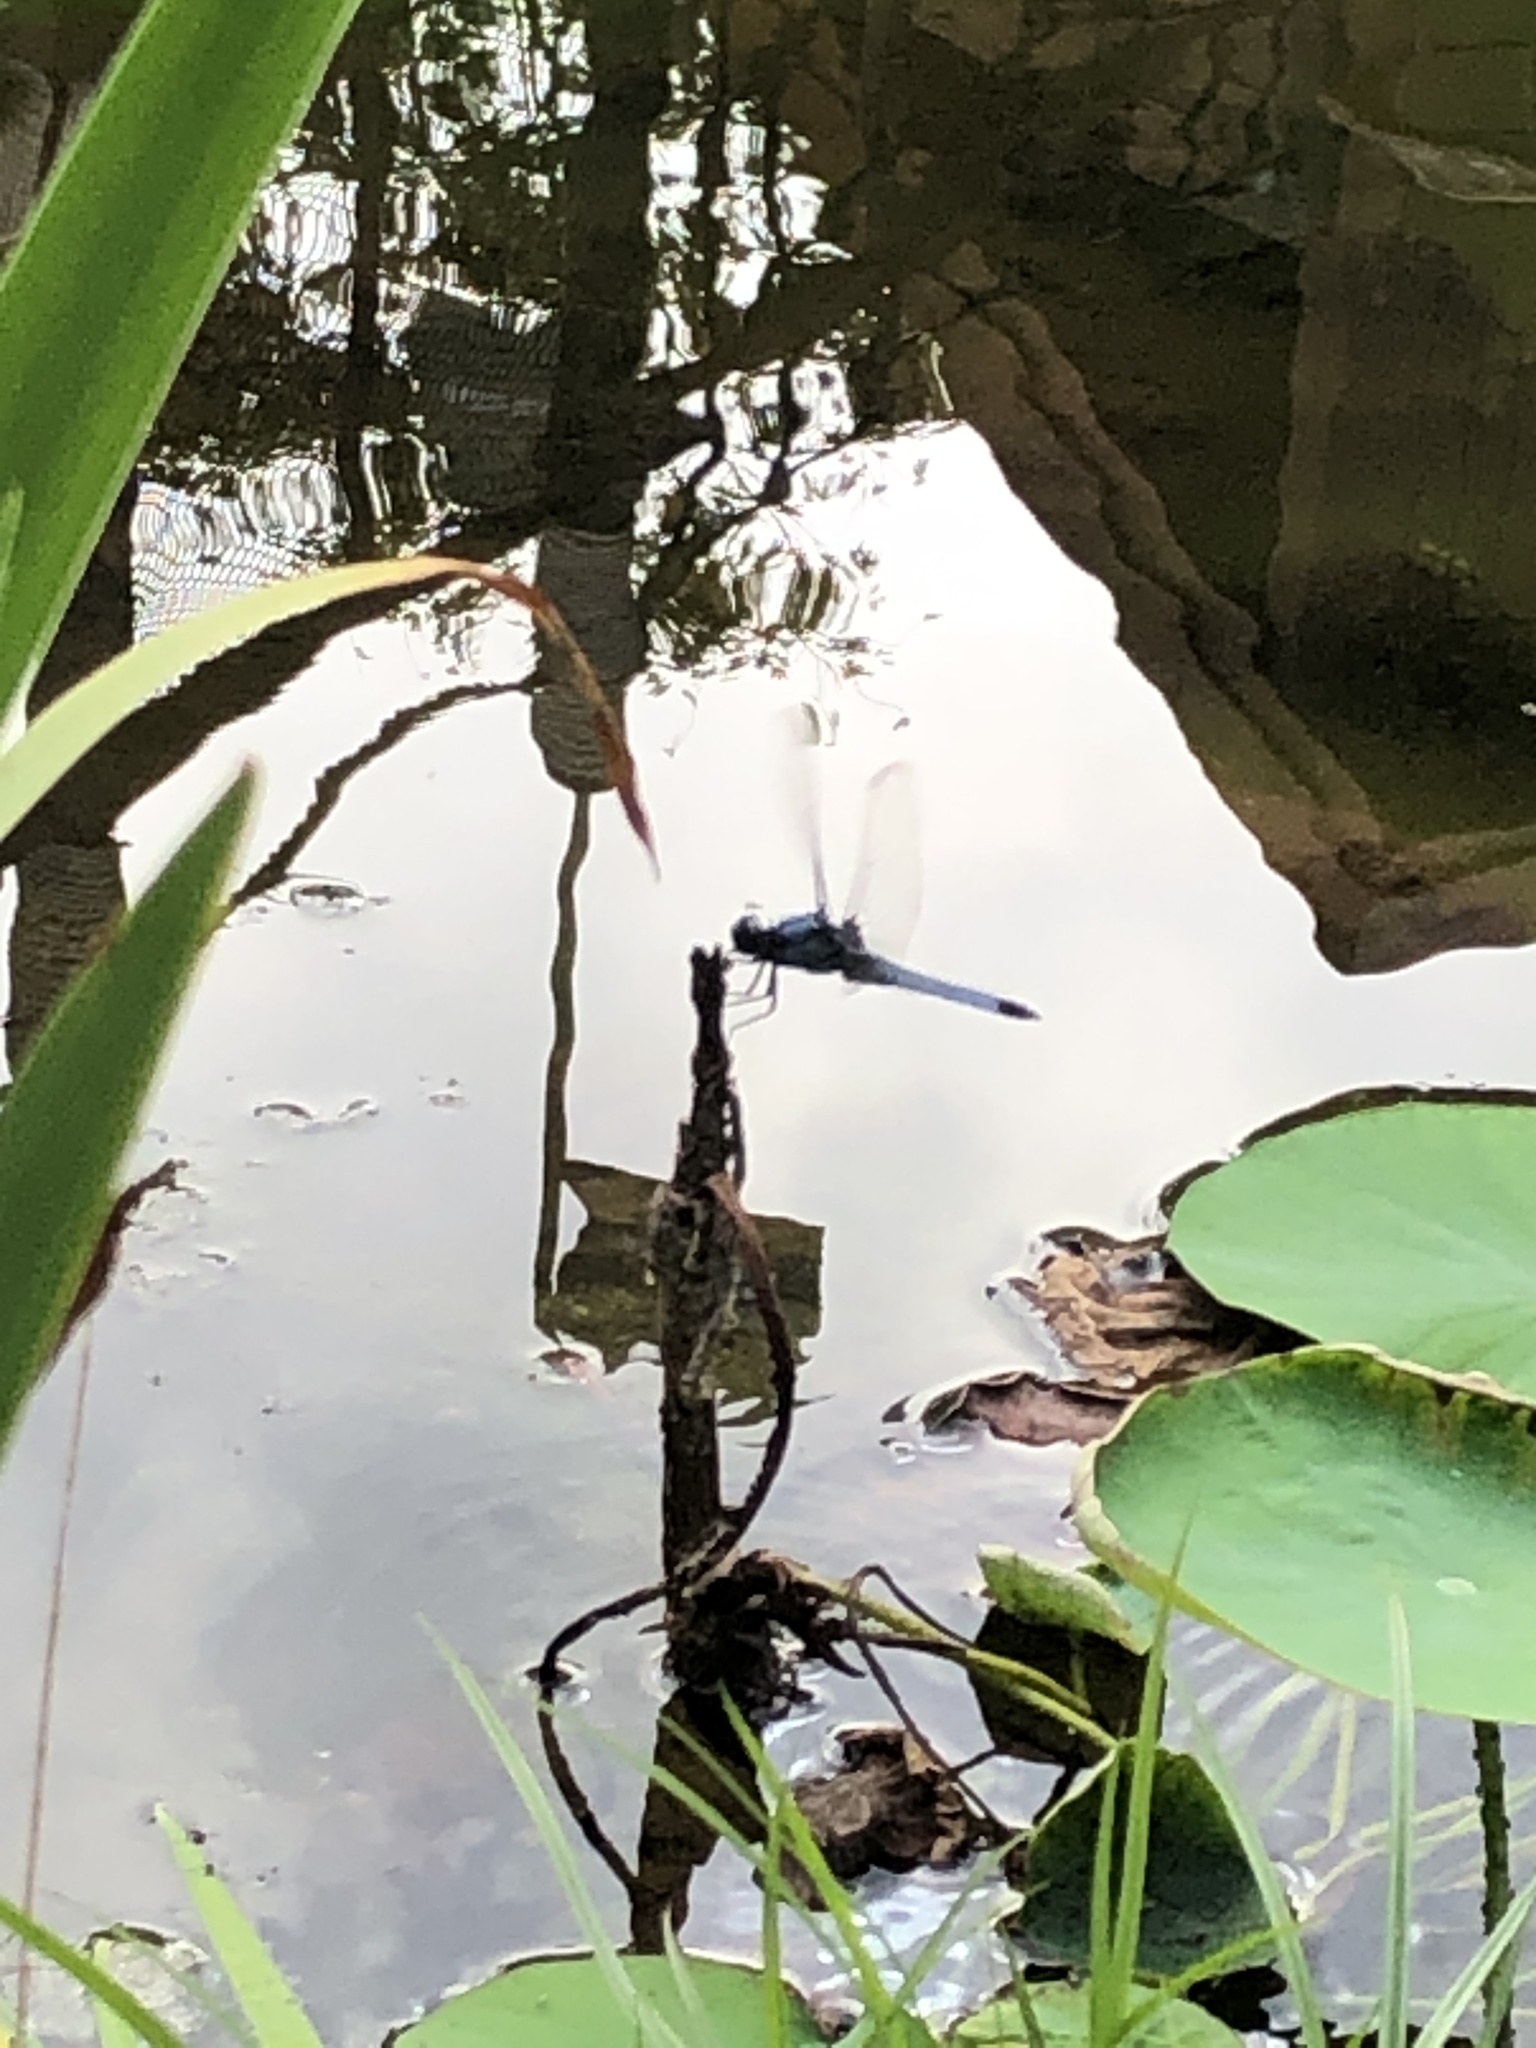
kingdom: Animalia
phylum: Arthropoda
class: Insecta
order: Odonata
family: Libellulidae
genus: Orthetrum
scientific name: Orthetrum melania
